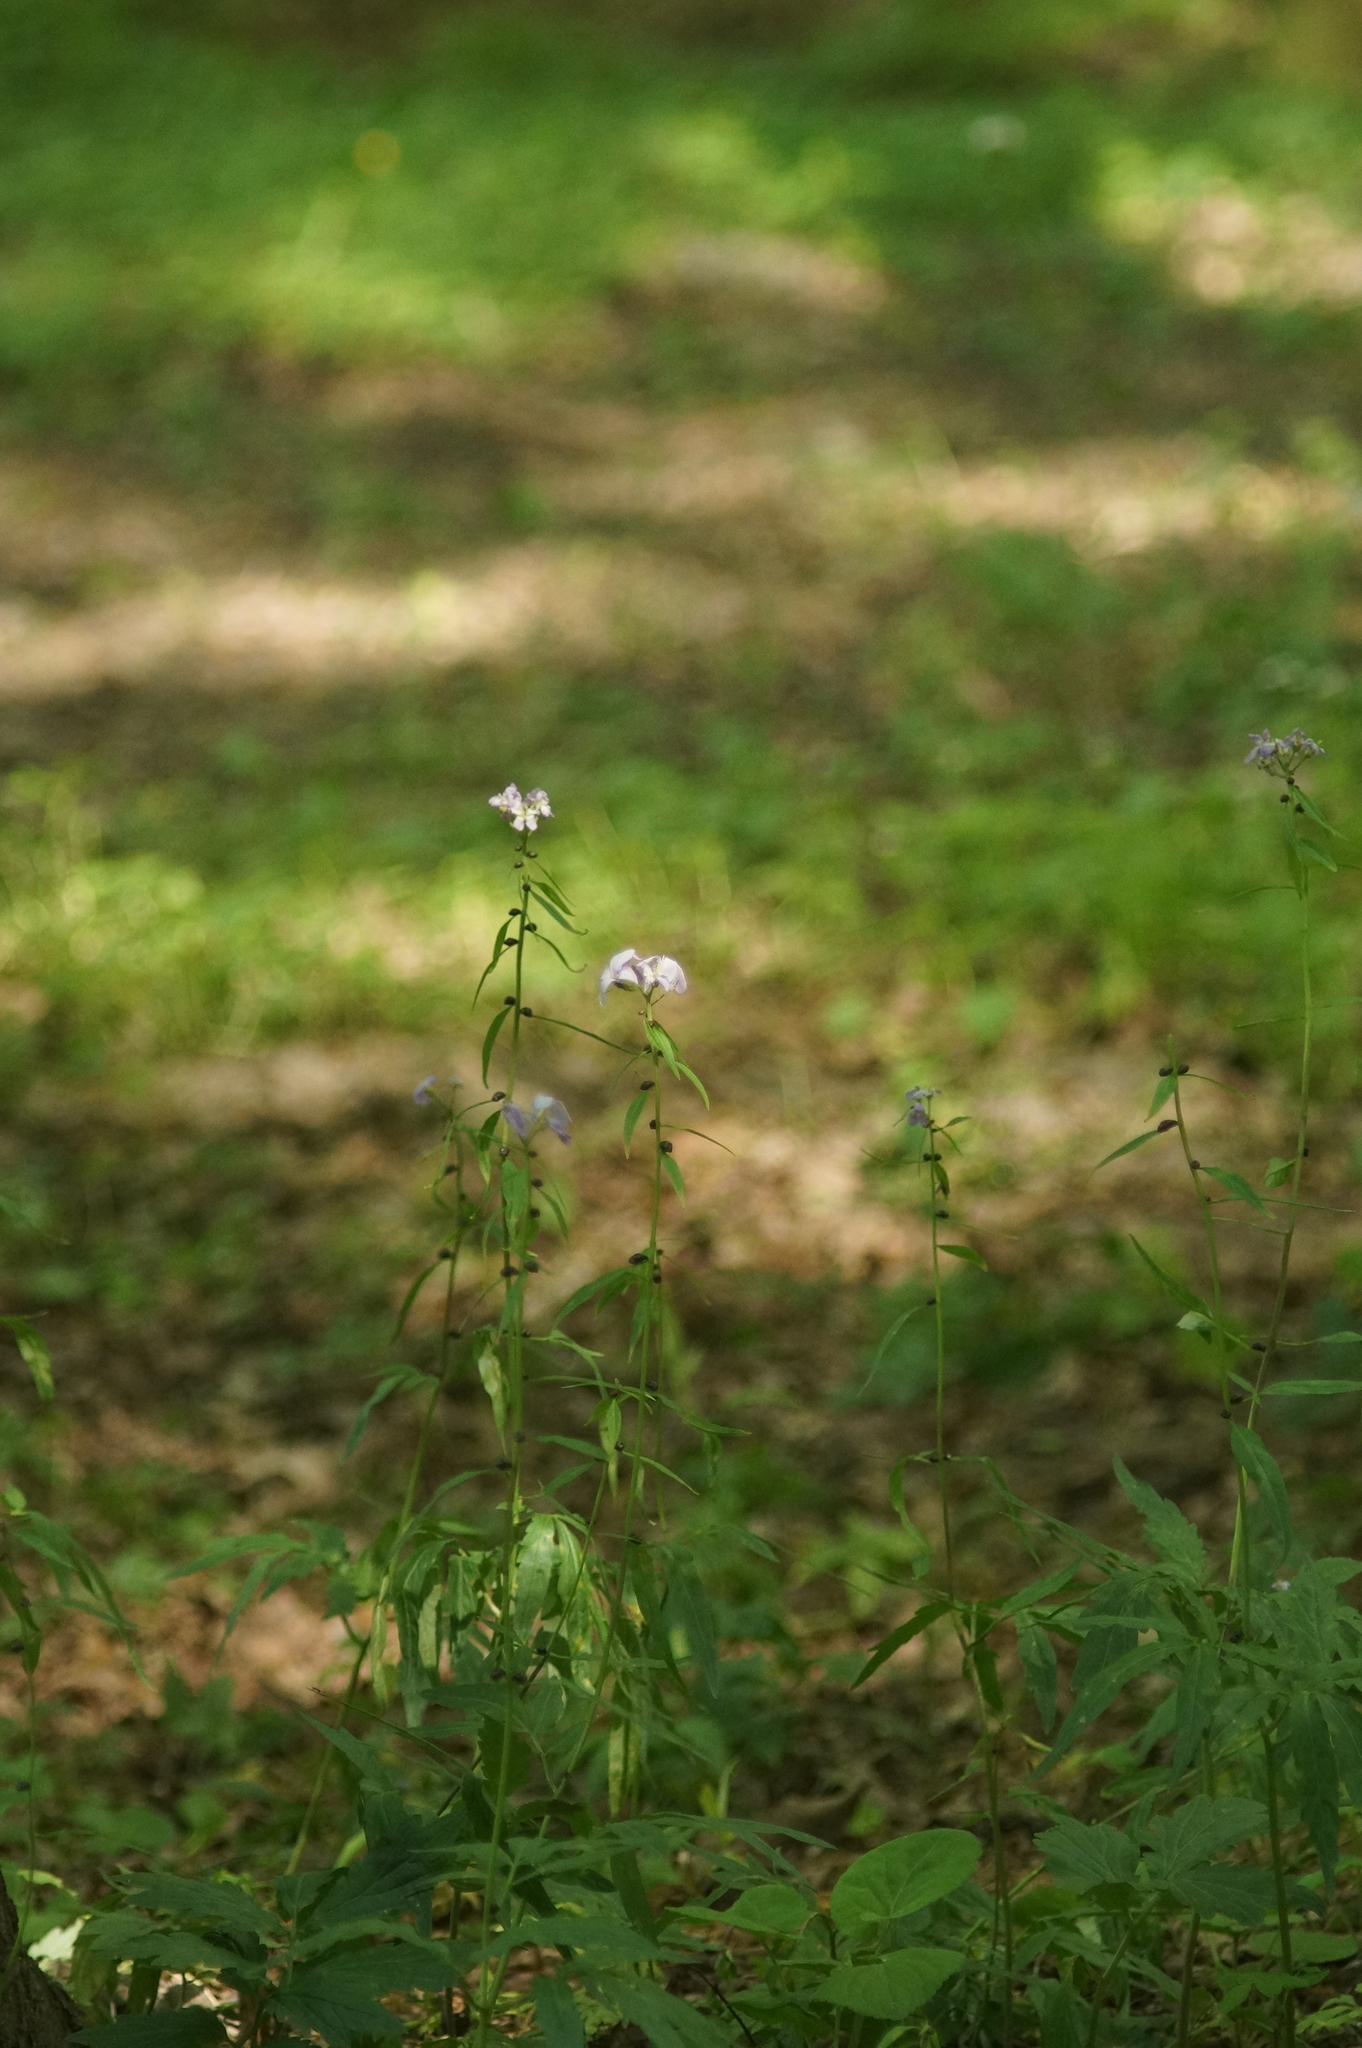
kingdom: Plantae
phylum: Tracheophyta
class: Magnoliopsida
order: Brassicales
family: Brassicaceae
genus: Cardamine
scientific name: Cardamine bulbifera
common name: Coralroot bittercress
